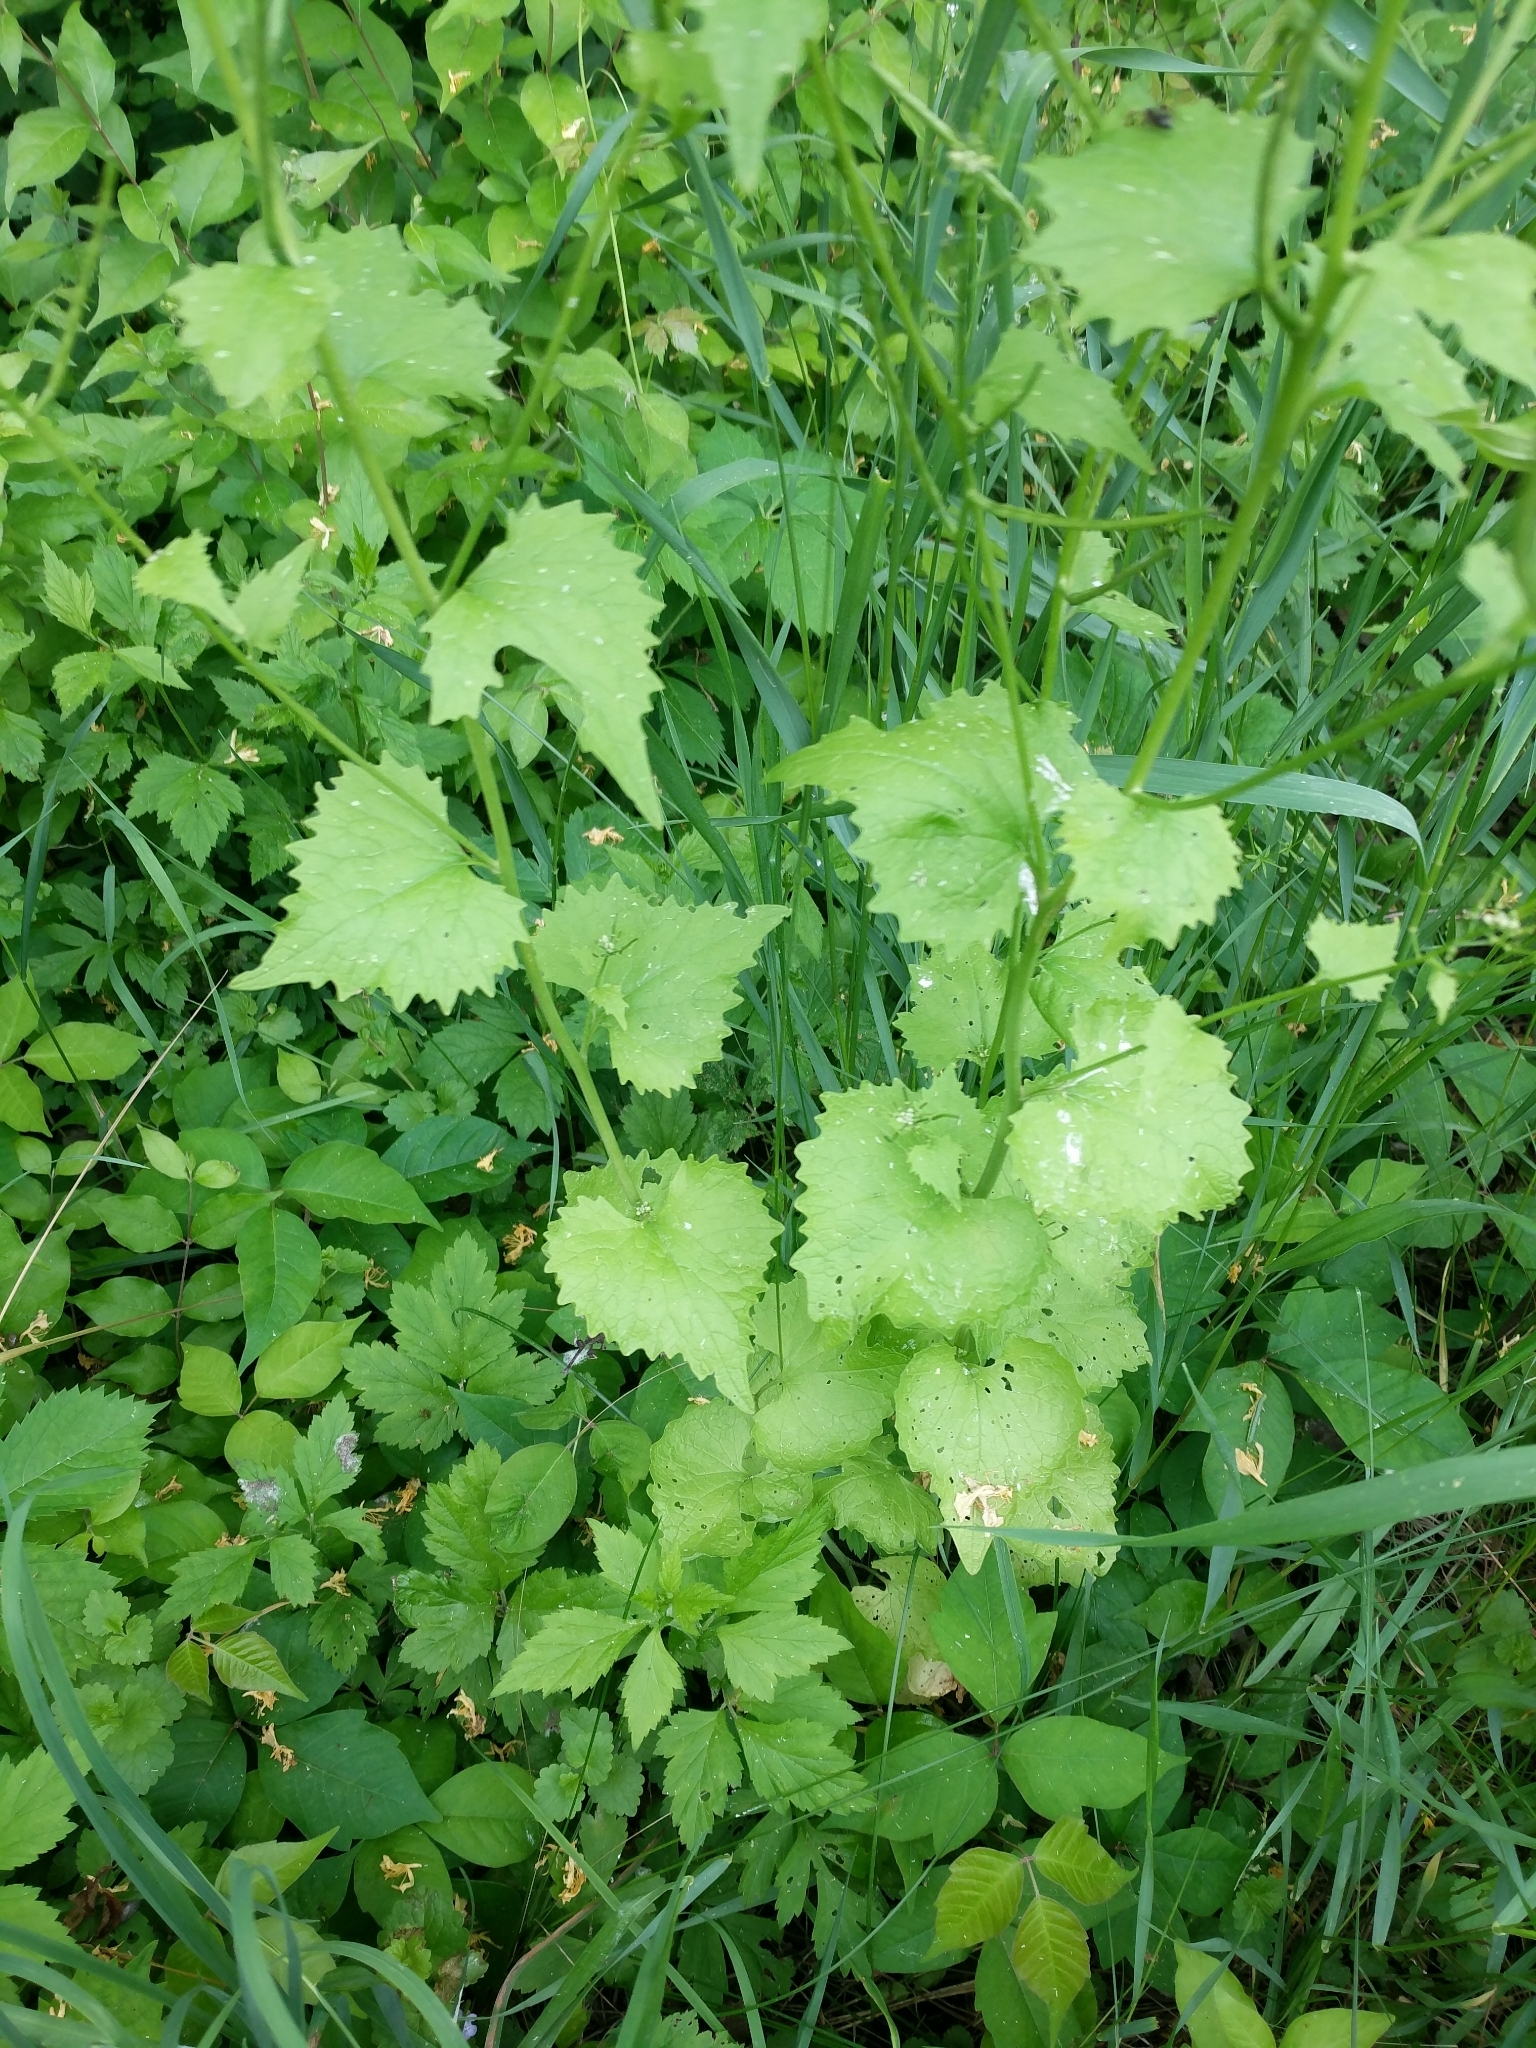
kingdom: Plantae
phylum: Tracheophyta
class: Magnoliopsida
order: Brassicales
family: Brassicaceae
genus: Alliaria
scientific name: Alliaria petiolata
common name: Garlic mustard
